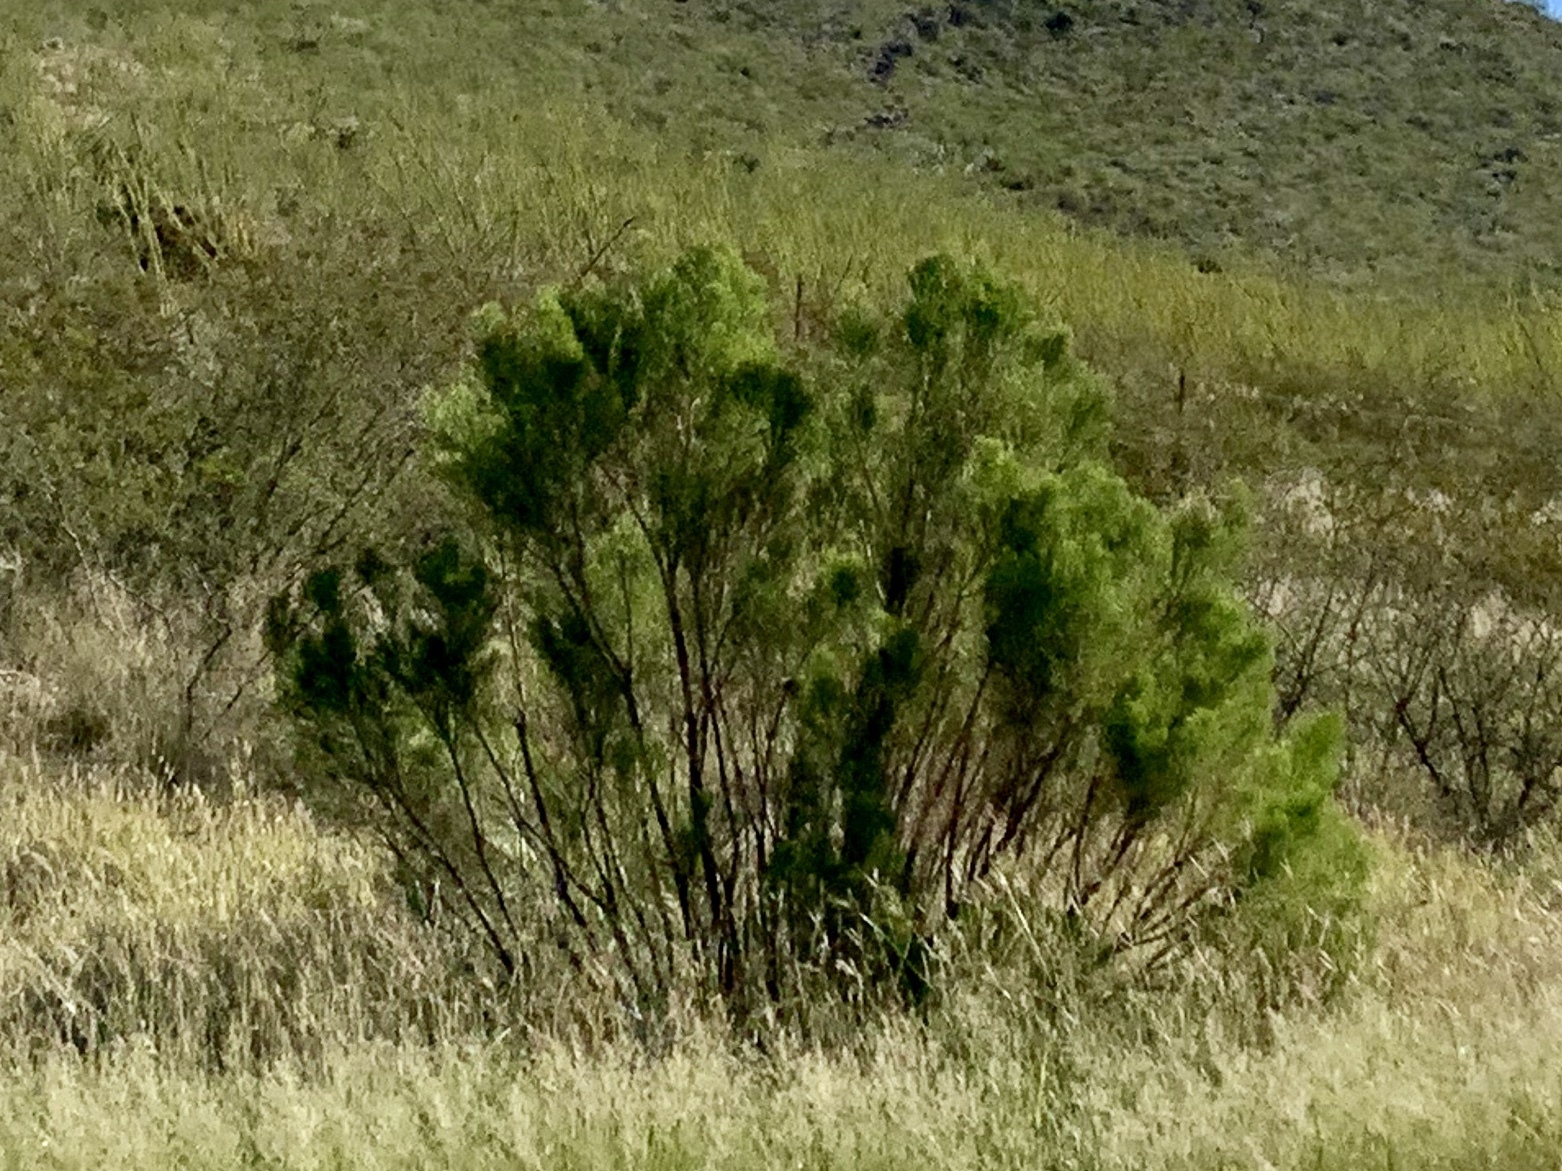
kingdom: Plantae
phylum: Tracheophyta
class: Magnoliopsida
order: Asterales
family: Asteraceae
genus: Baccharis
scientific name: Baccharis sarothroides
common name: Desert-broom
